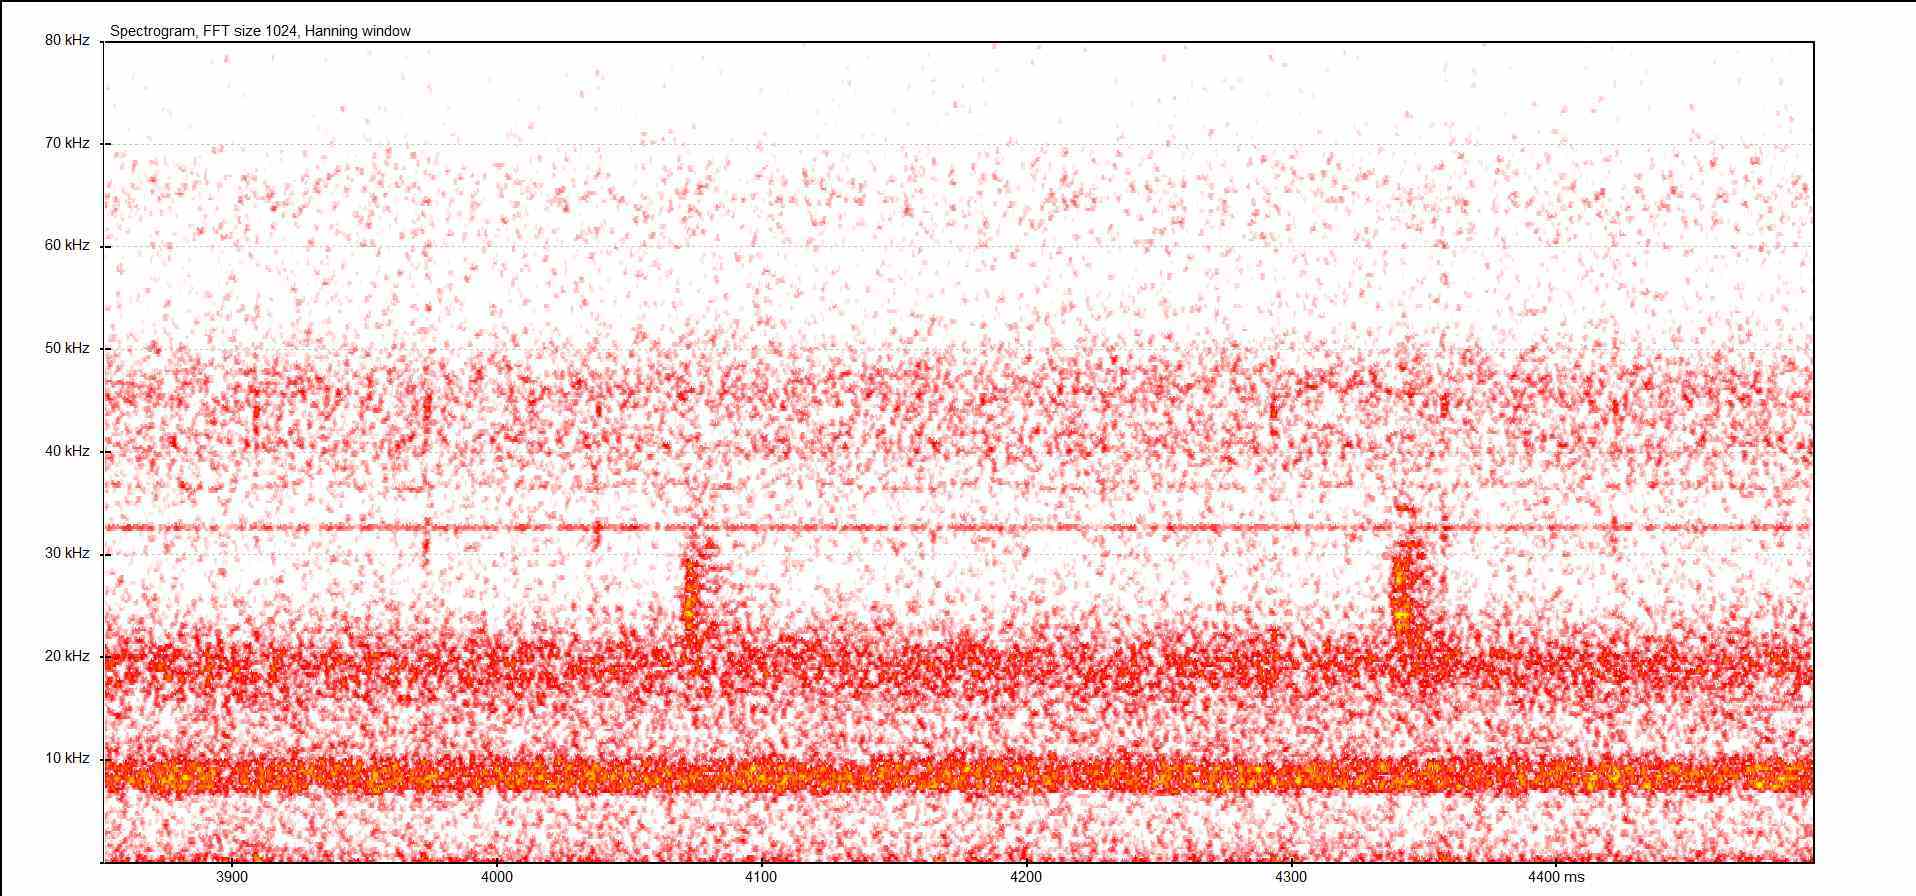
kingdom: Animalia
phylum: Arthropoda
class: Insecta
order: Orthoptera
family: Tettigoniidae
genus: Barbitistes
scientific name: Barbitistes serricauda
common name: Saw-tailed bush-cricket
